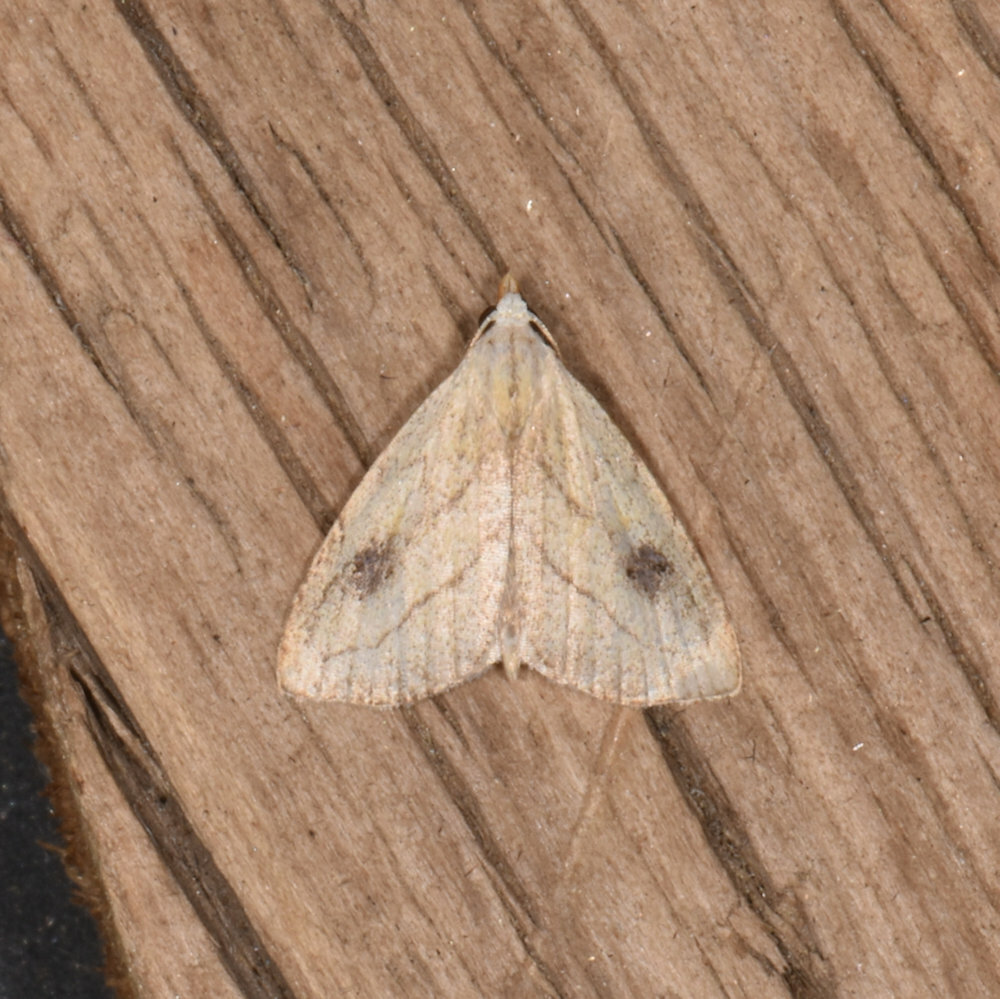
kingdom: Animalia
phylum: Arthropoda
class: Insecta
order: Lepidoptera
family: Erebidae
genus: Rivula
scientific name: Rivula propinqualis
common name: Spotted grass moth
